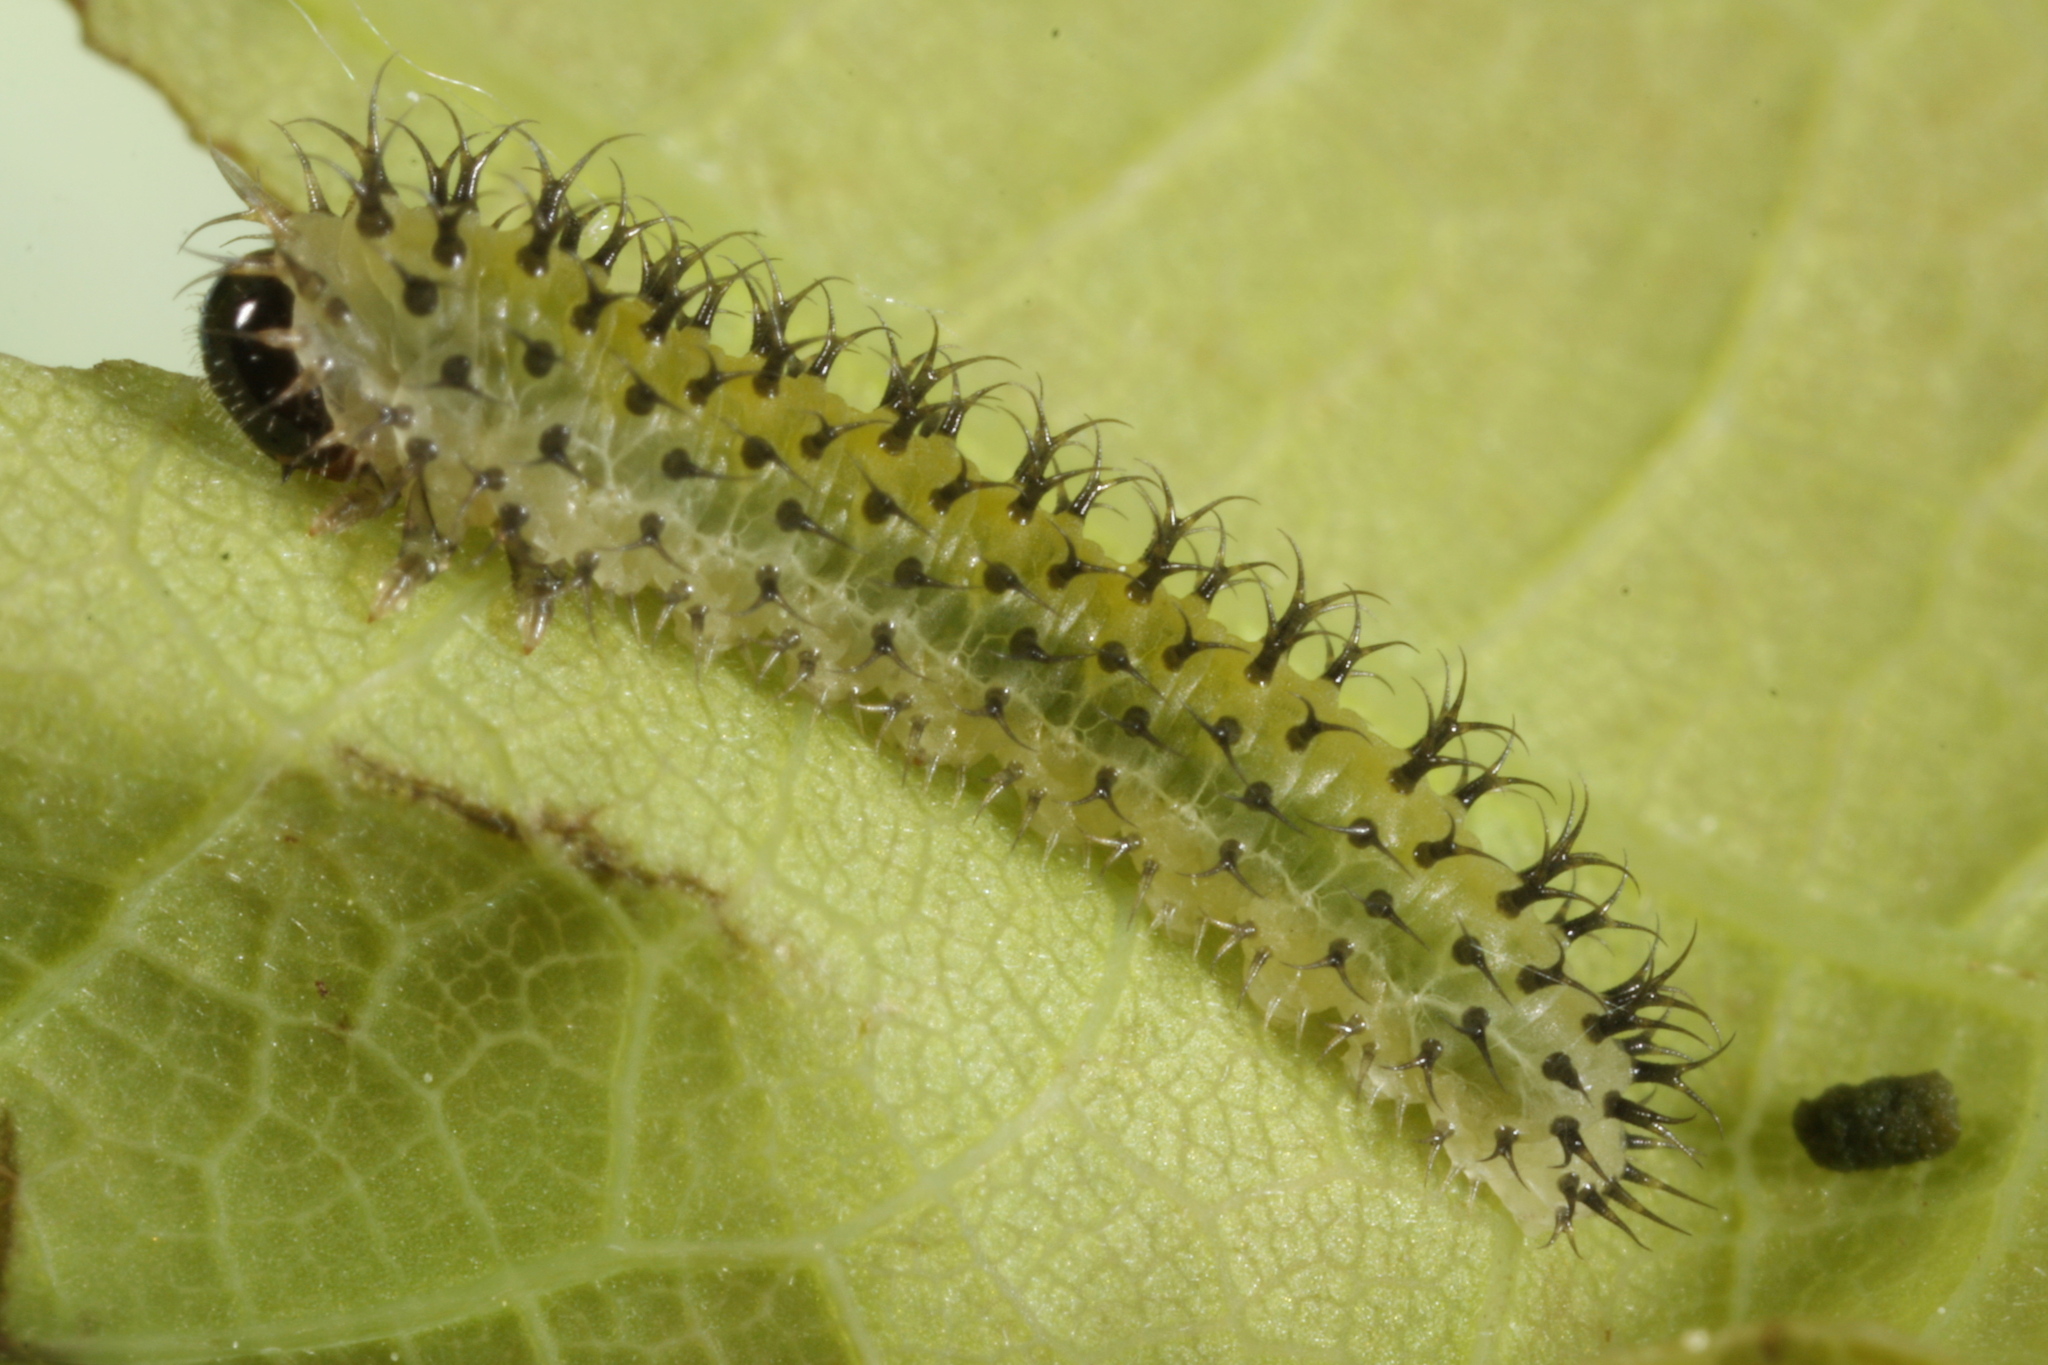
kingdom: Animalia
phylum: Arthropoda
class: Insecta
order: Hymenoptera
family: Tenthredinidae
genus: Periclista
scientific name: Periclista lineolata
